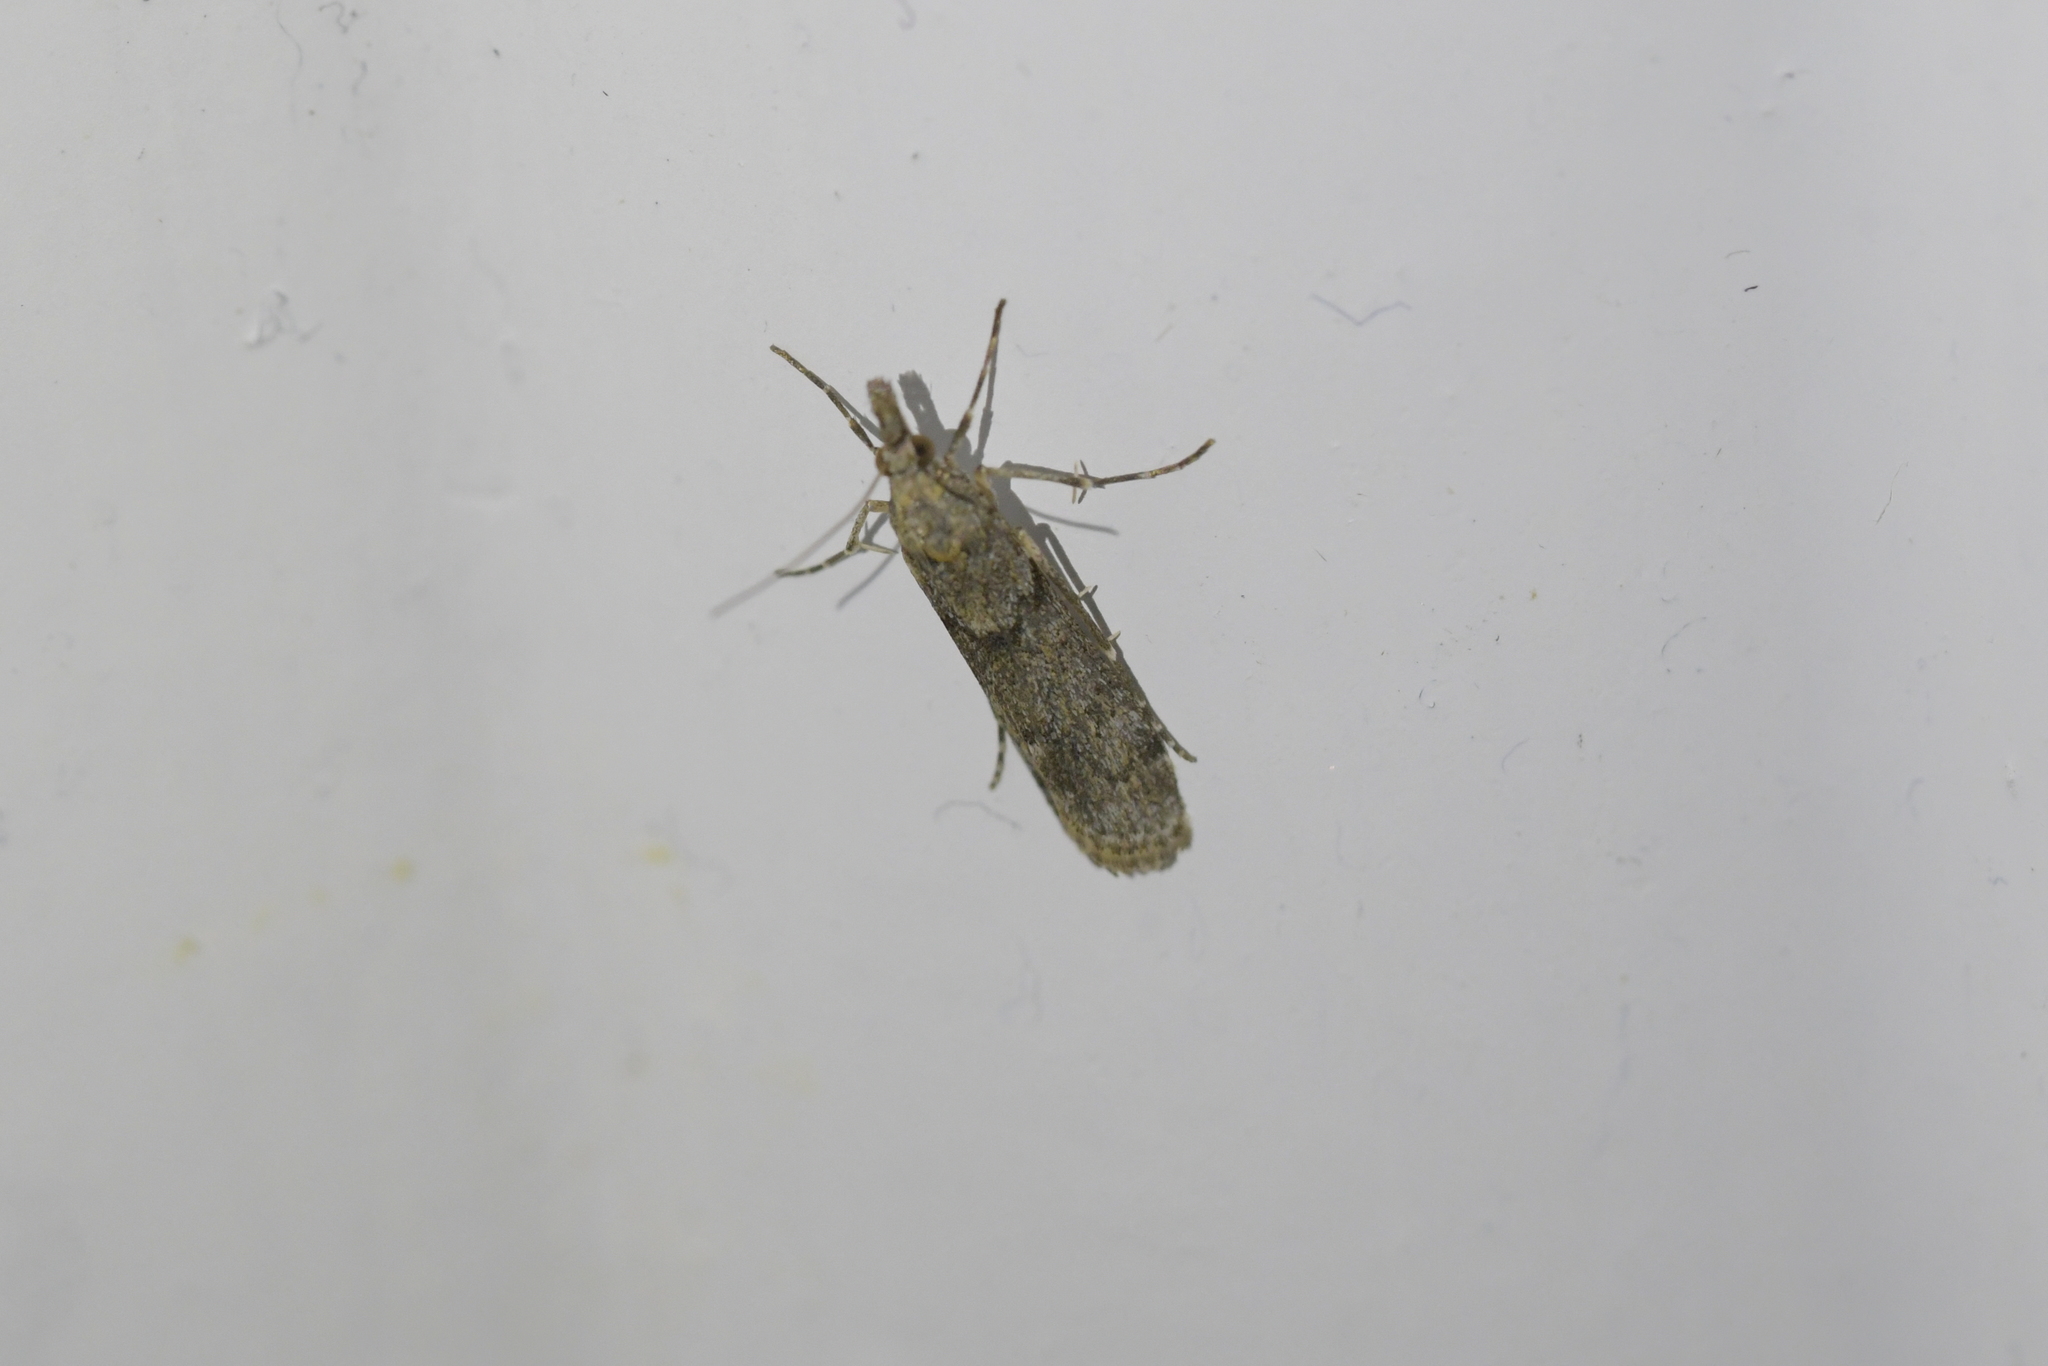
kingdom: Animalia
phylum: Arthropoda
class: Insecta
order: Lepidoptera
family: Crambidae
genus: Eudonia
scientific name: Eudonia leptalea
